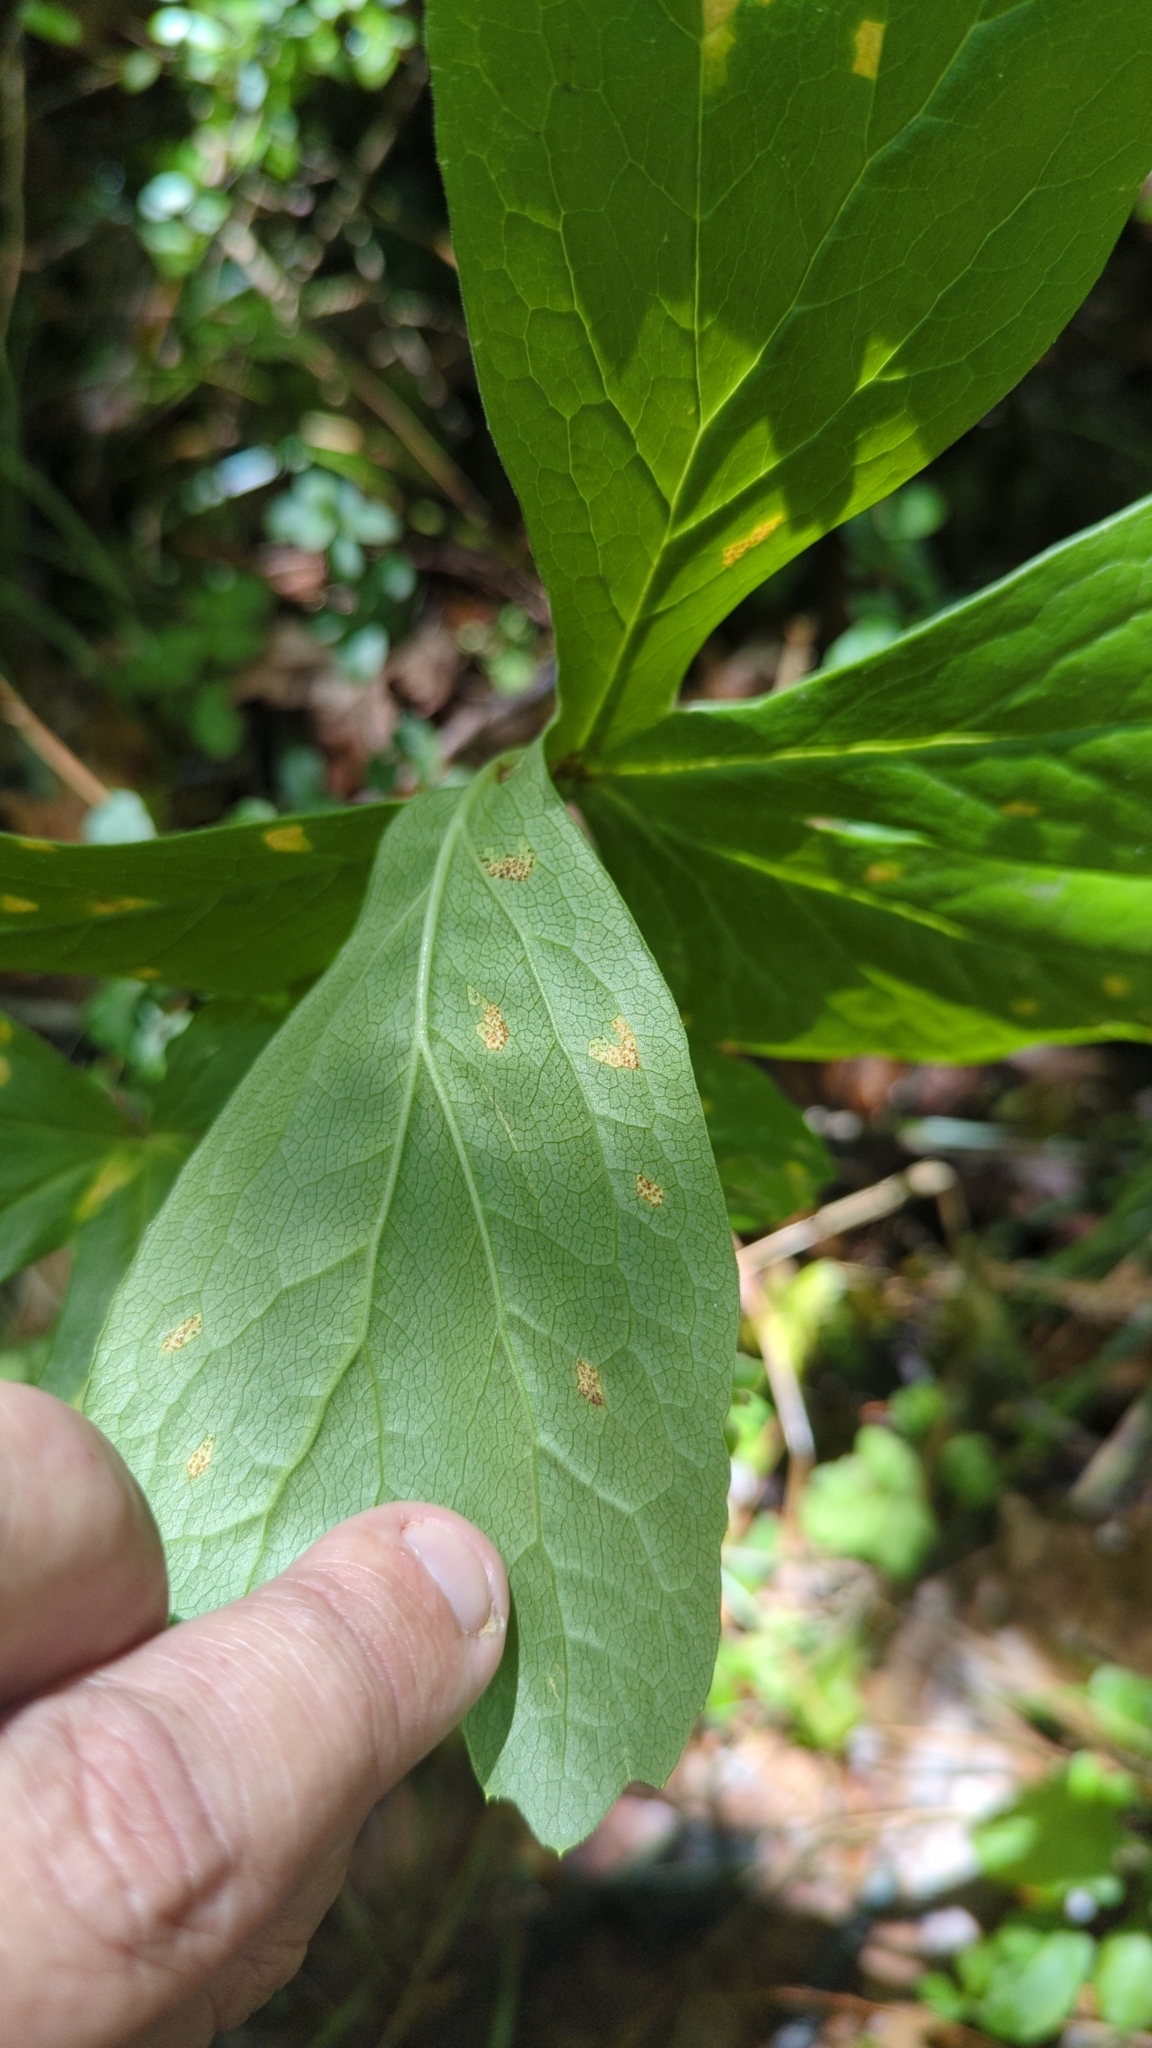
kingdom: Fungi
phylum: Basidiomycota
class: Pucciniomycetes
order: Pucciniales
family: Pucciniaceae
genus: Puccinia
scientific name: Puccinia podophylli
